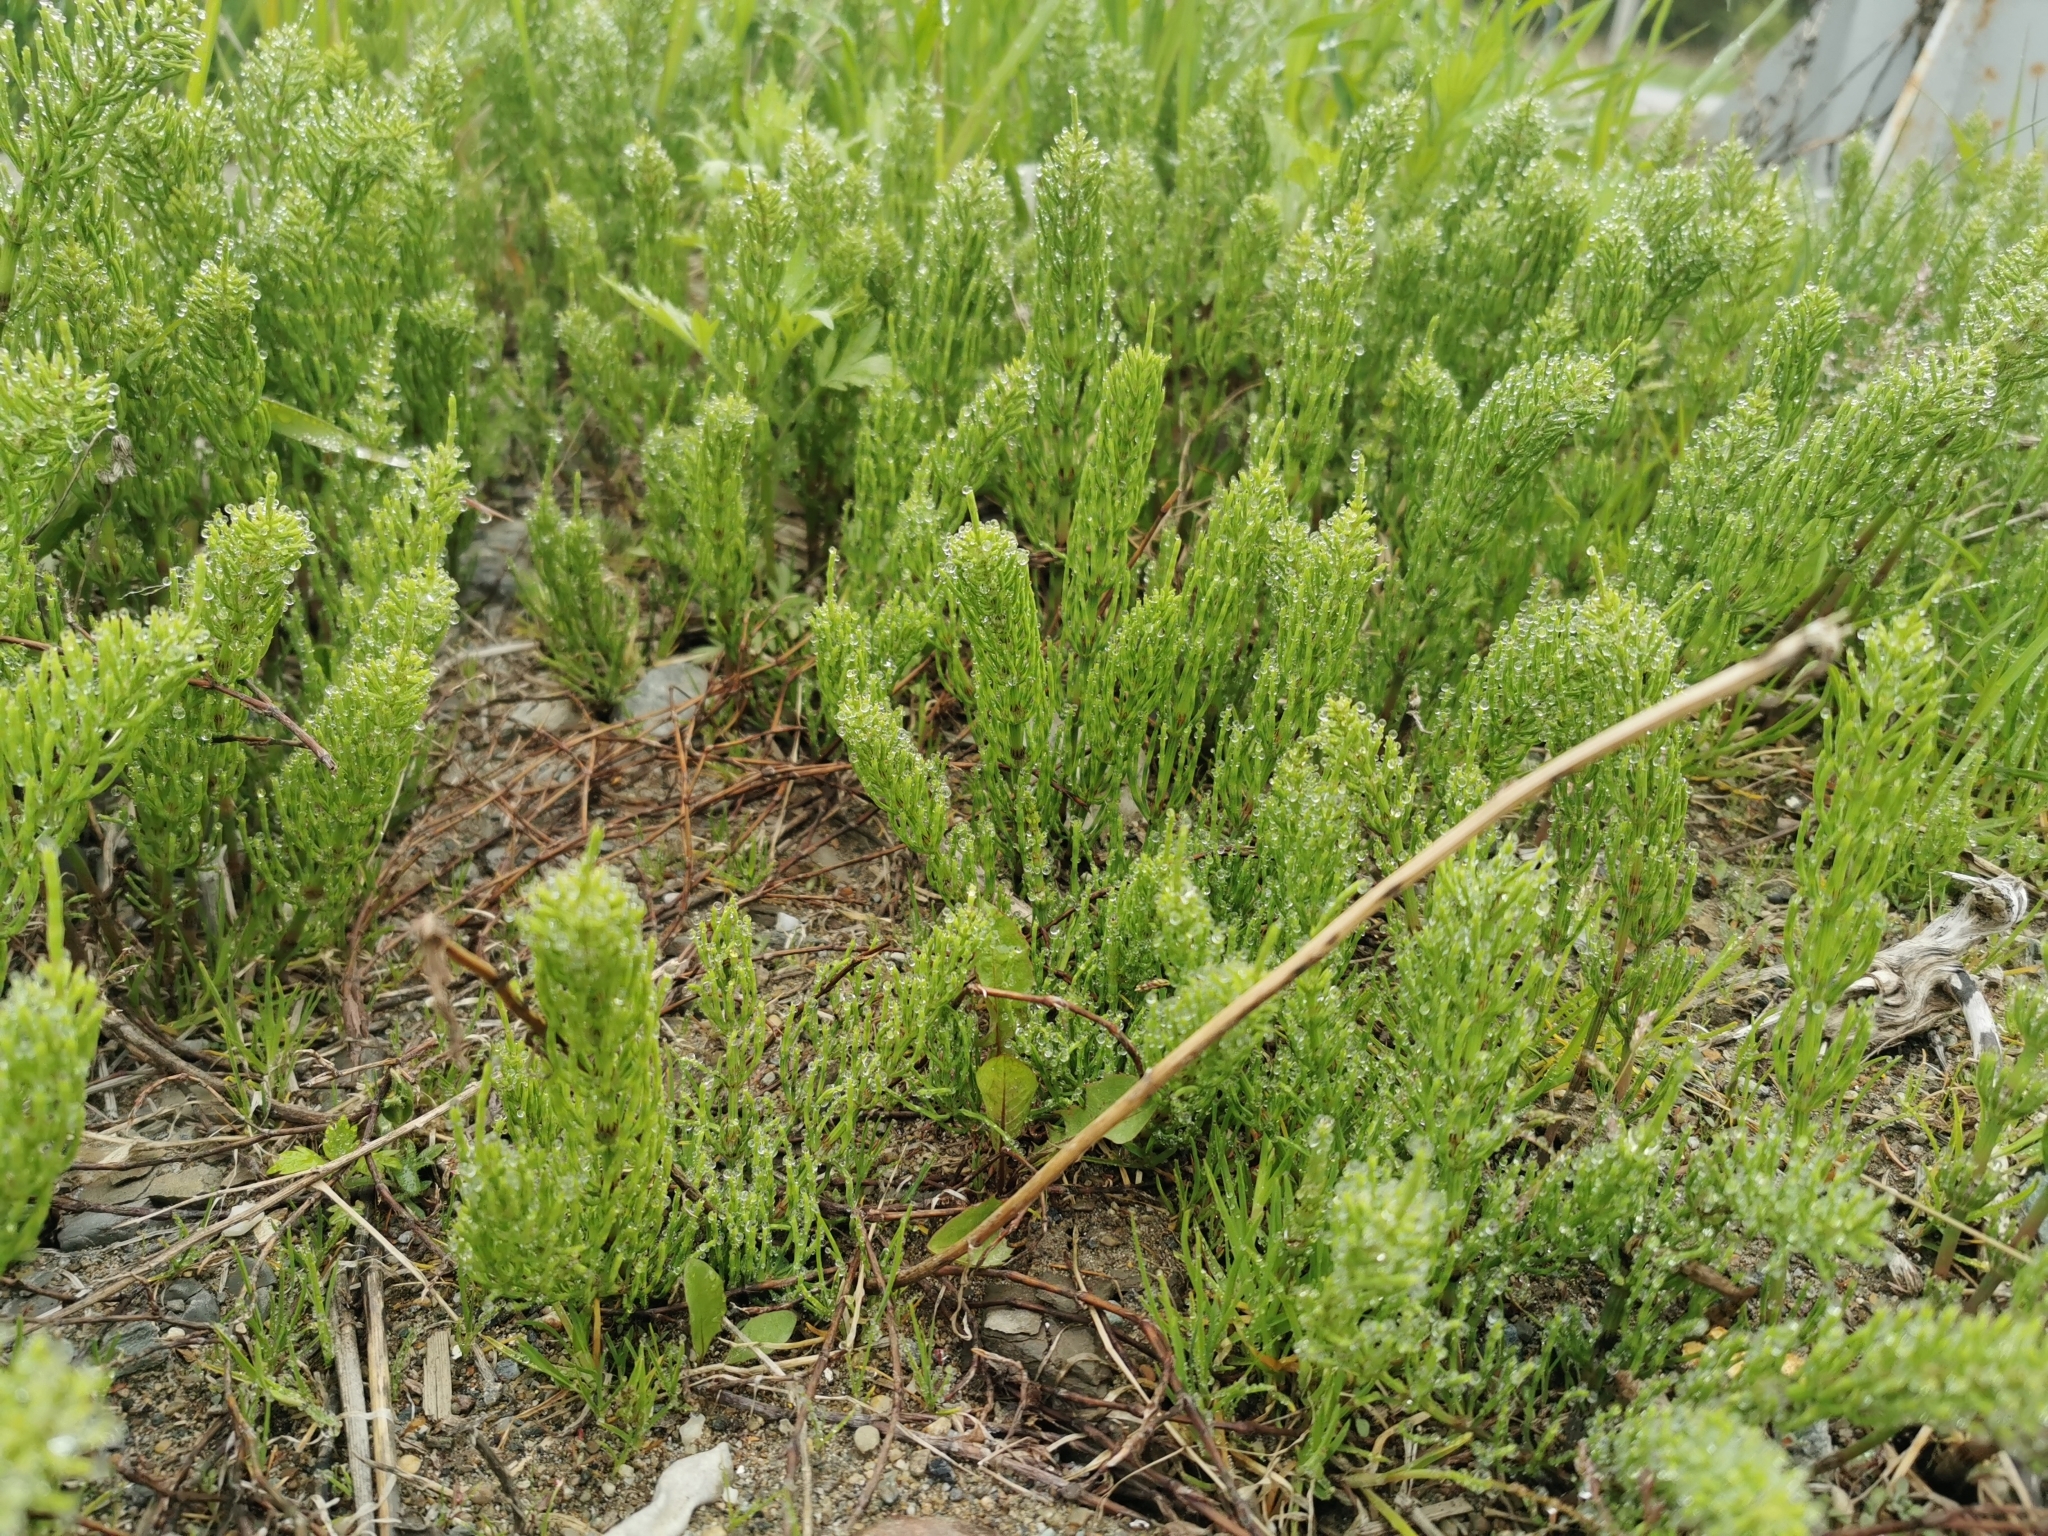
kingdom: Plantae
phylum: Tracheophyta
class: Polypodiopsida
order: Equisetales
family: Equisetaceae
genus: Equisetum
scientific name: Equisetum arvense
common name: Field horsetail
